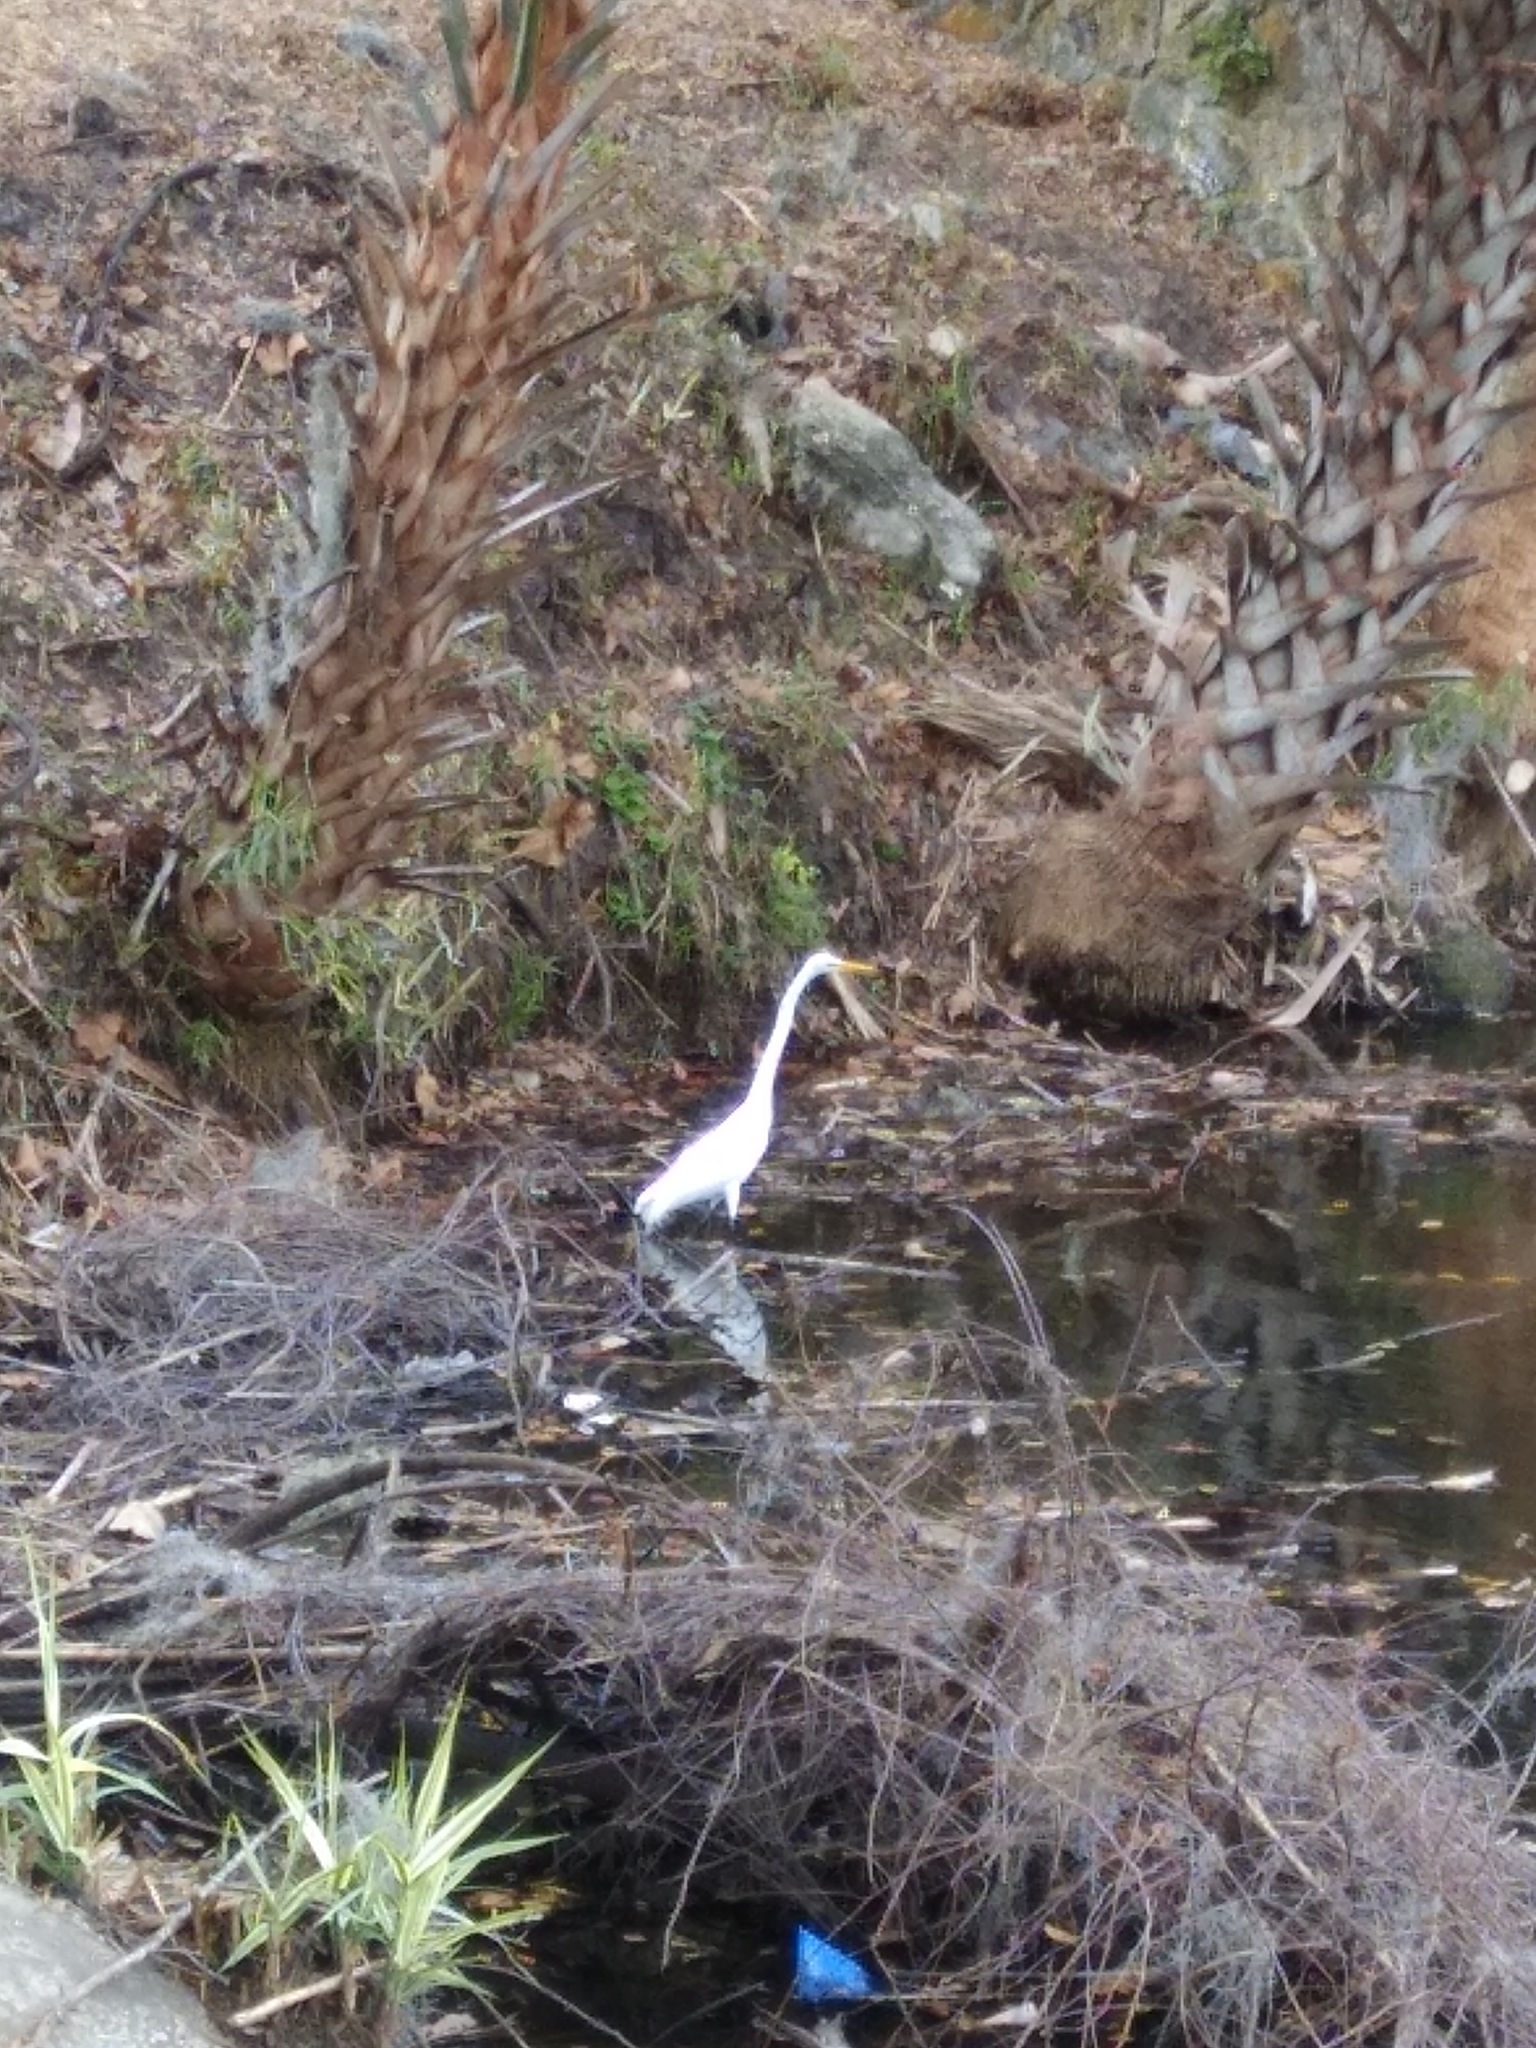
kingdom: Animalia
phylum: Chordata
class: Aves
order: Pelecaniformes
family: Ardeidae
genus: Ardea
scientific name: Ardea alba
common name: Great egret
